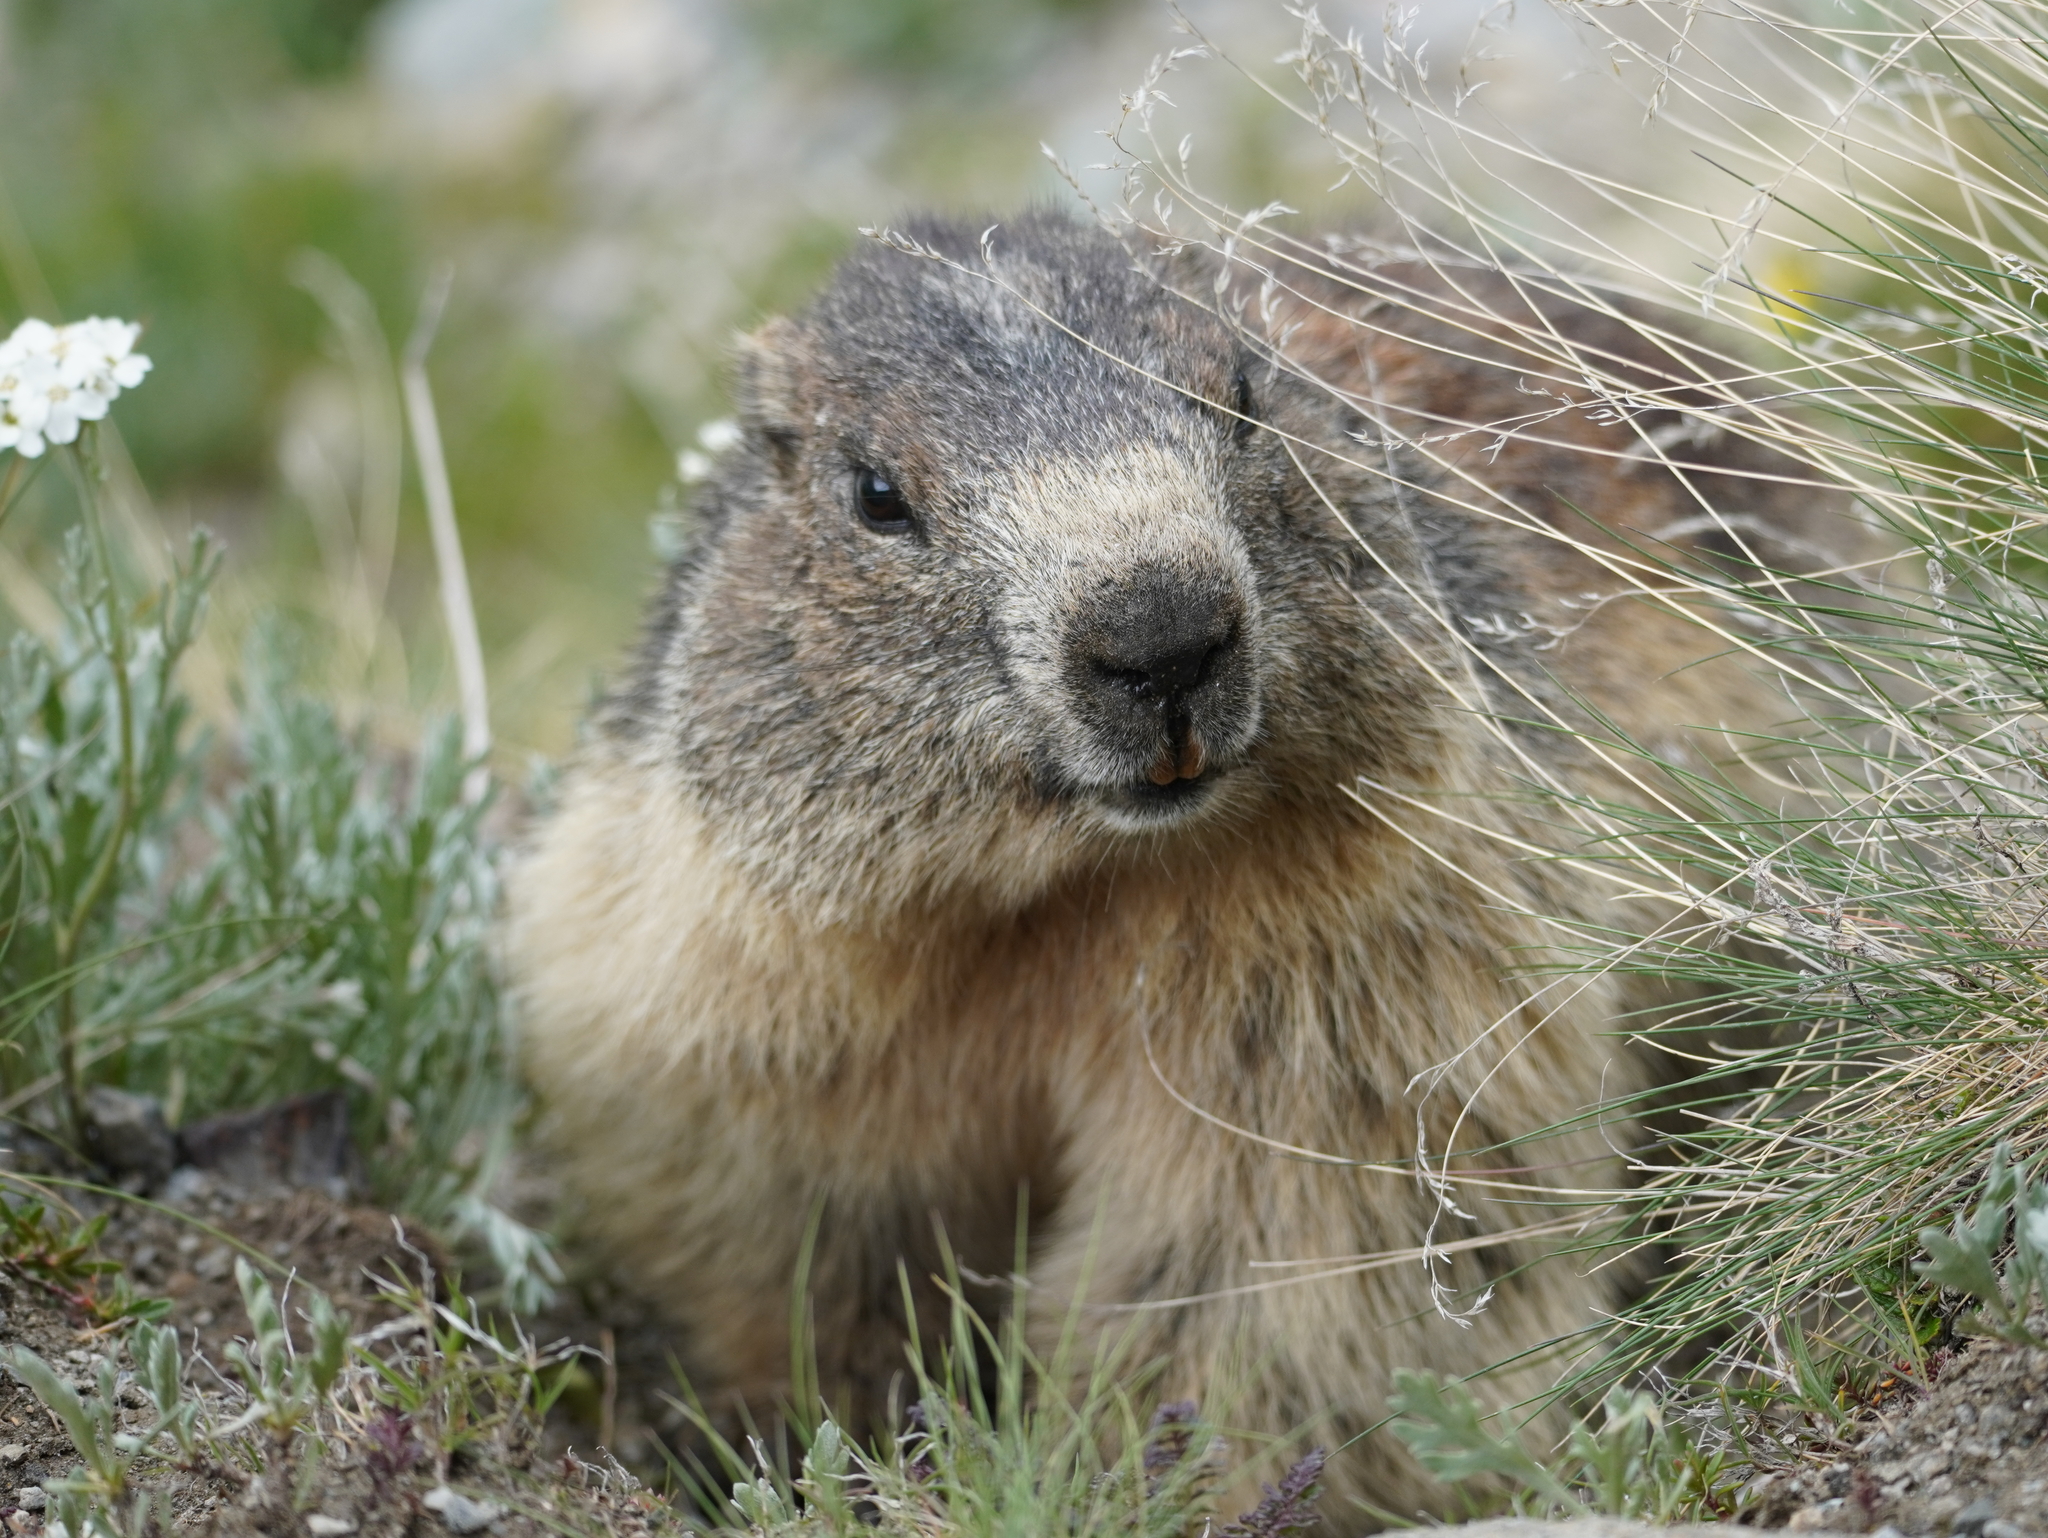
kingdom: Animalia
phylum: Chordata
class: Mammalia
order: Rodentia
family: Sciuridae
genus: Marmota
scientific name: Marmota marmota
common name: Alpine marmot
